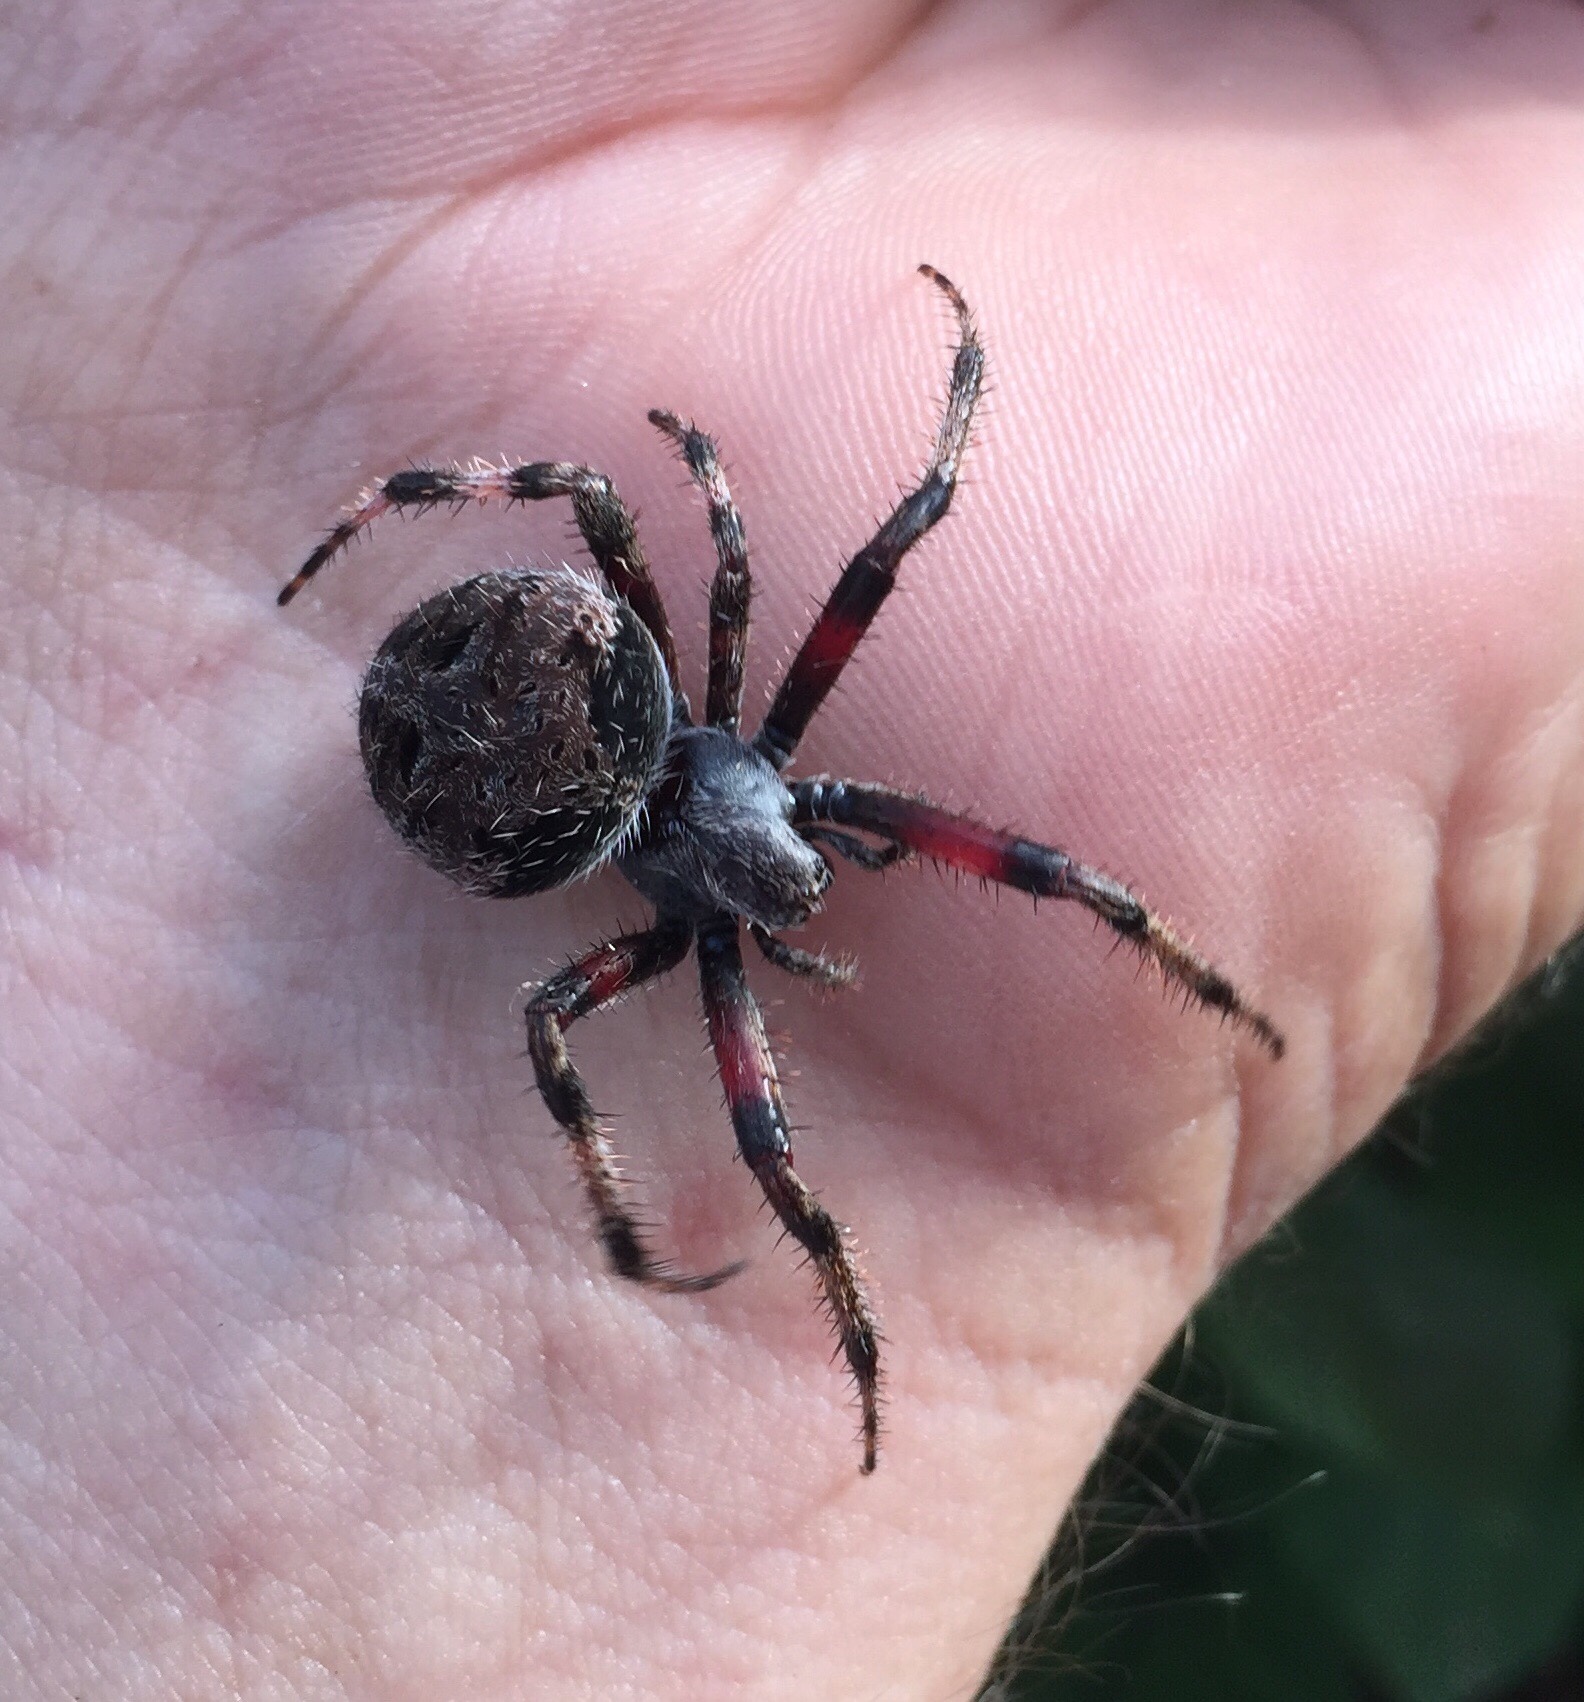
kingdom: Animalia
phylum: Arthropoda
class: Arachnida
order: Araneae
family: Araneidae
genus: Neoscona
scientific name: Neoscona oaxacensis
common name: Orb weavers
